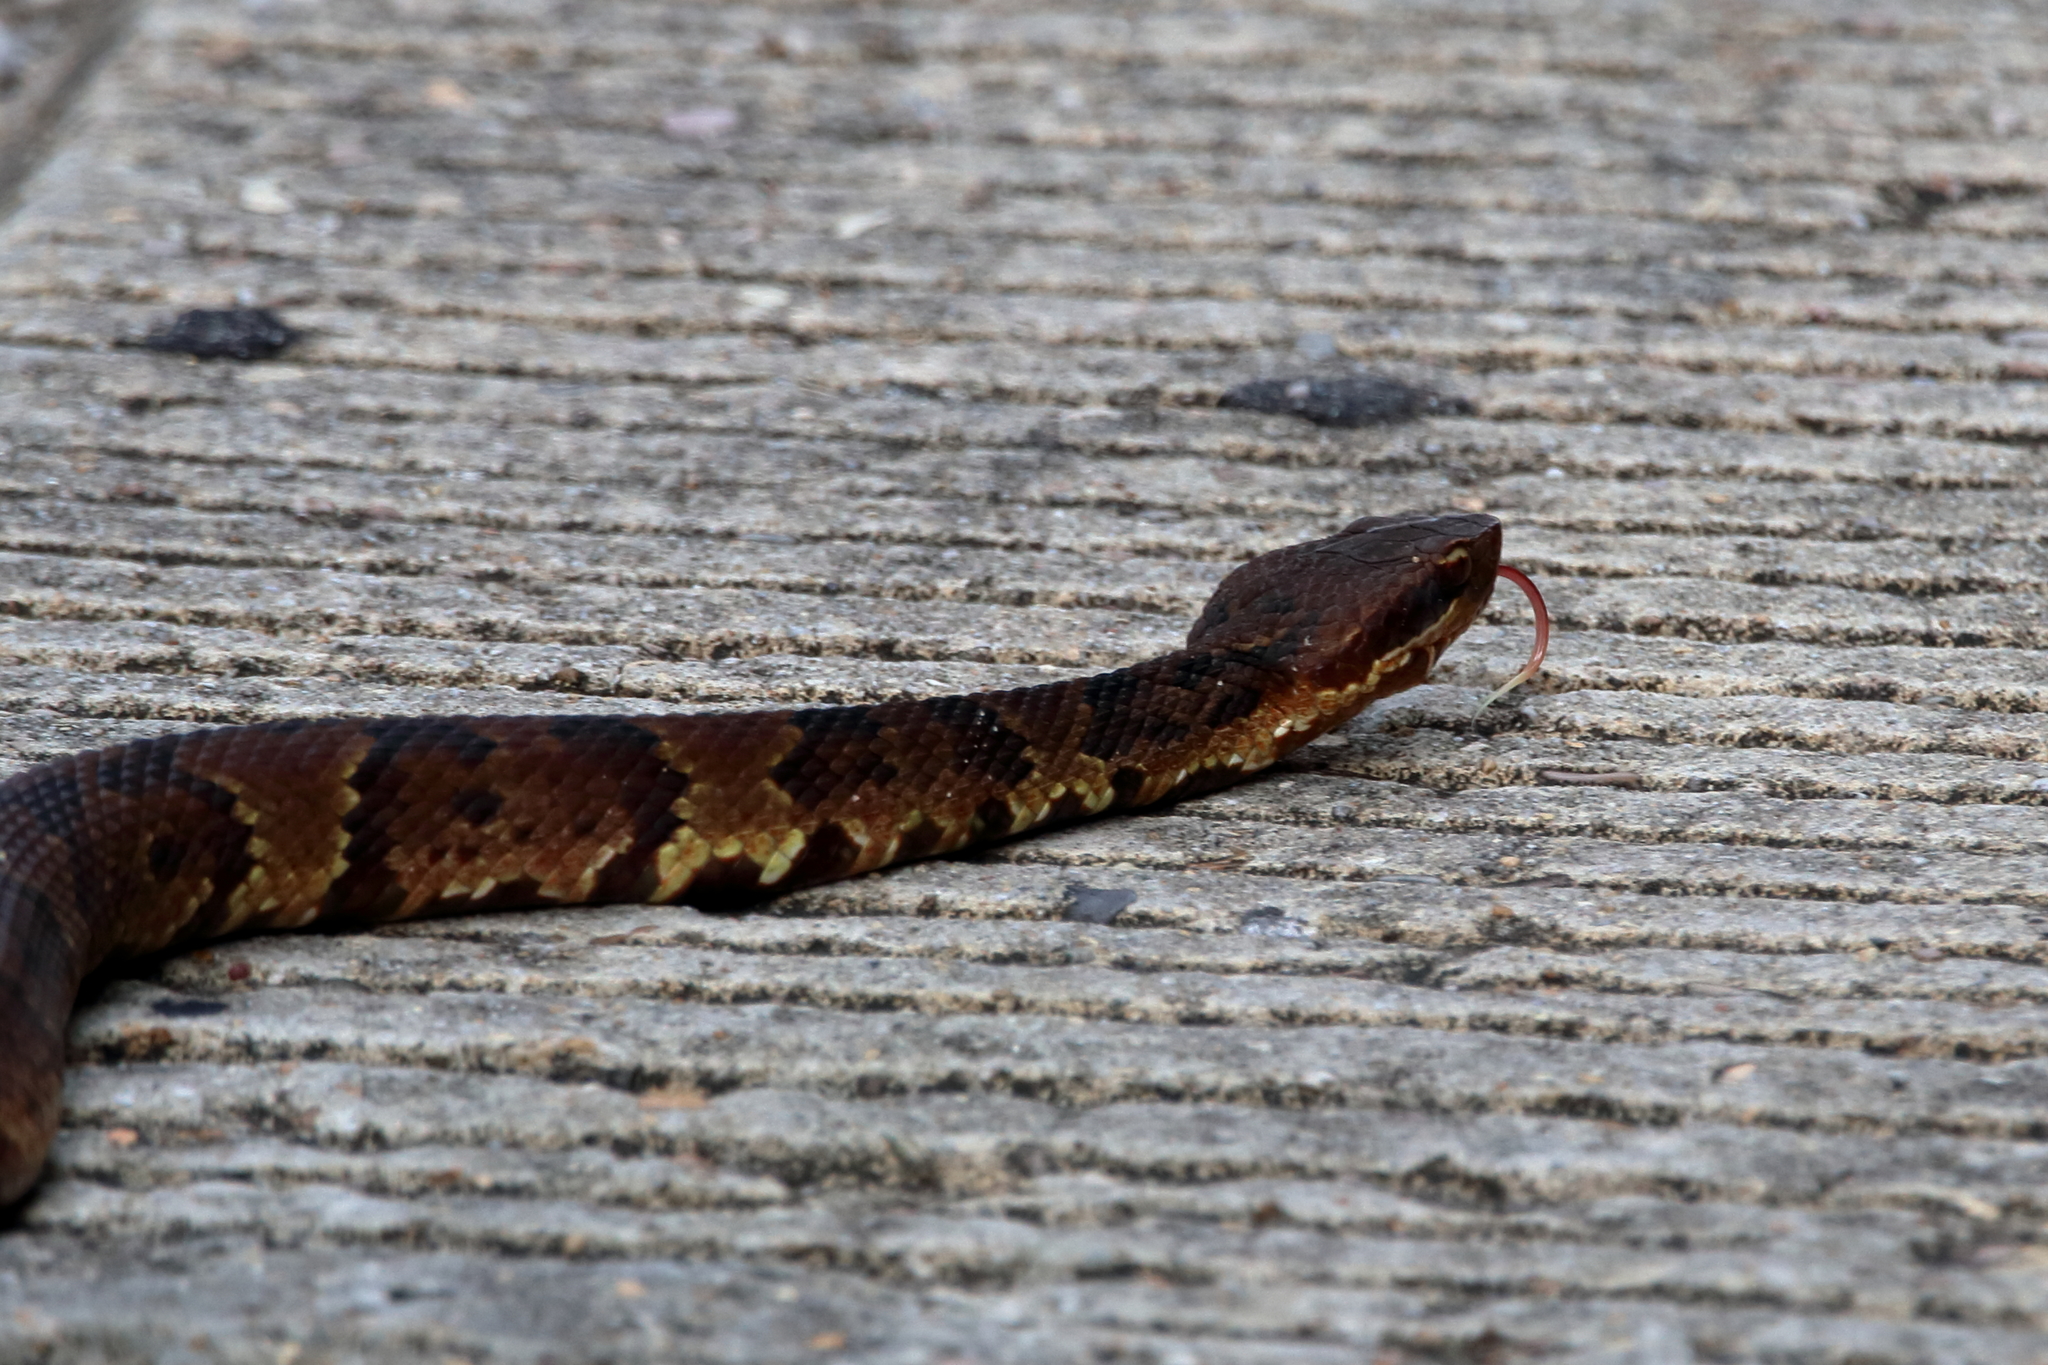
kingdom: Animalia
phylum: Chordata
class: Squamata
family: Viperidae
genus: Agkistrodon
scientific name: Agkistrodon piscivorus
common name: Cottonmouth
